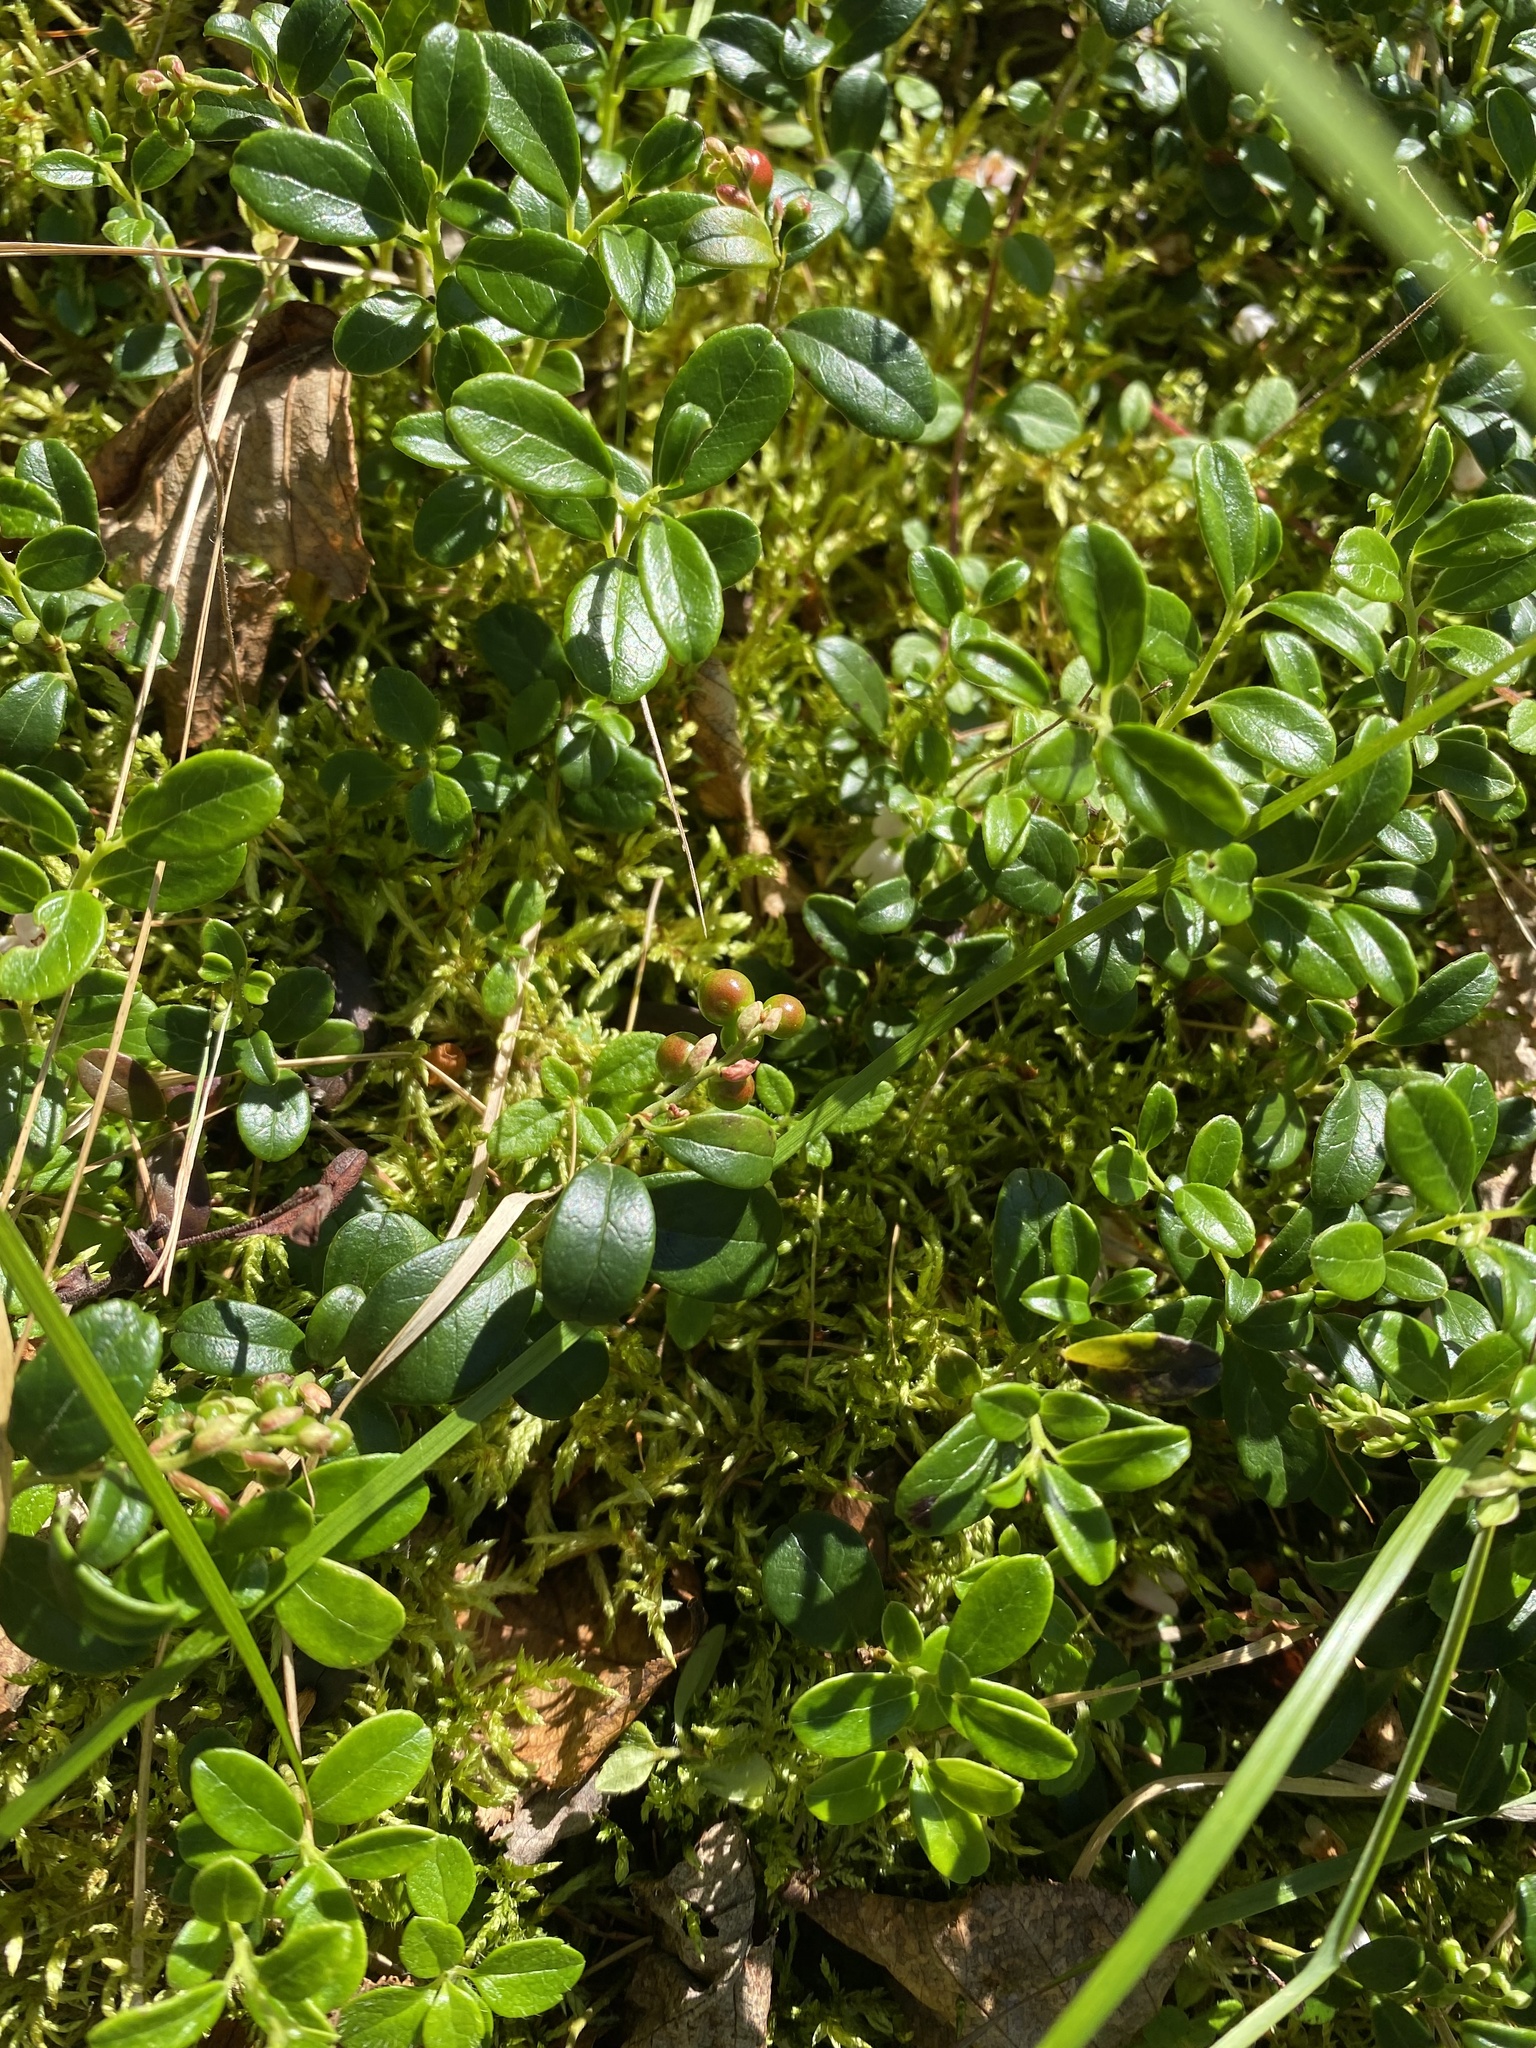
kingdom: Plantae
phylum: Tracheophyta
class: Magnoliopsida
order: Ericales
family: Ericaceae
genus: Vaccinium
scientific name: Vaccinium vitis-idaea
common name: Cowberry
